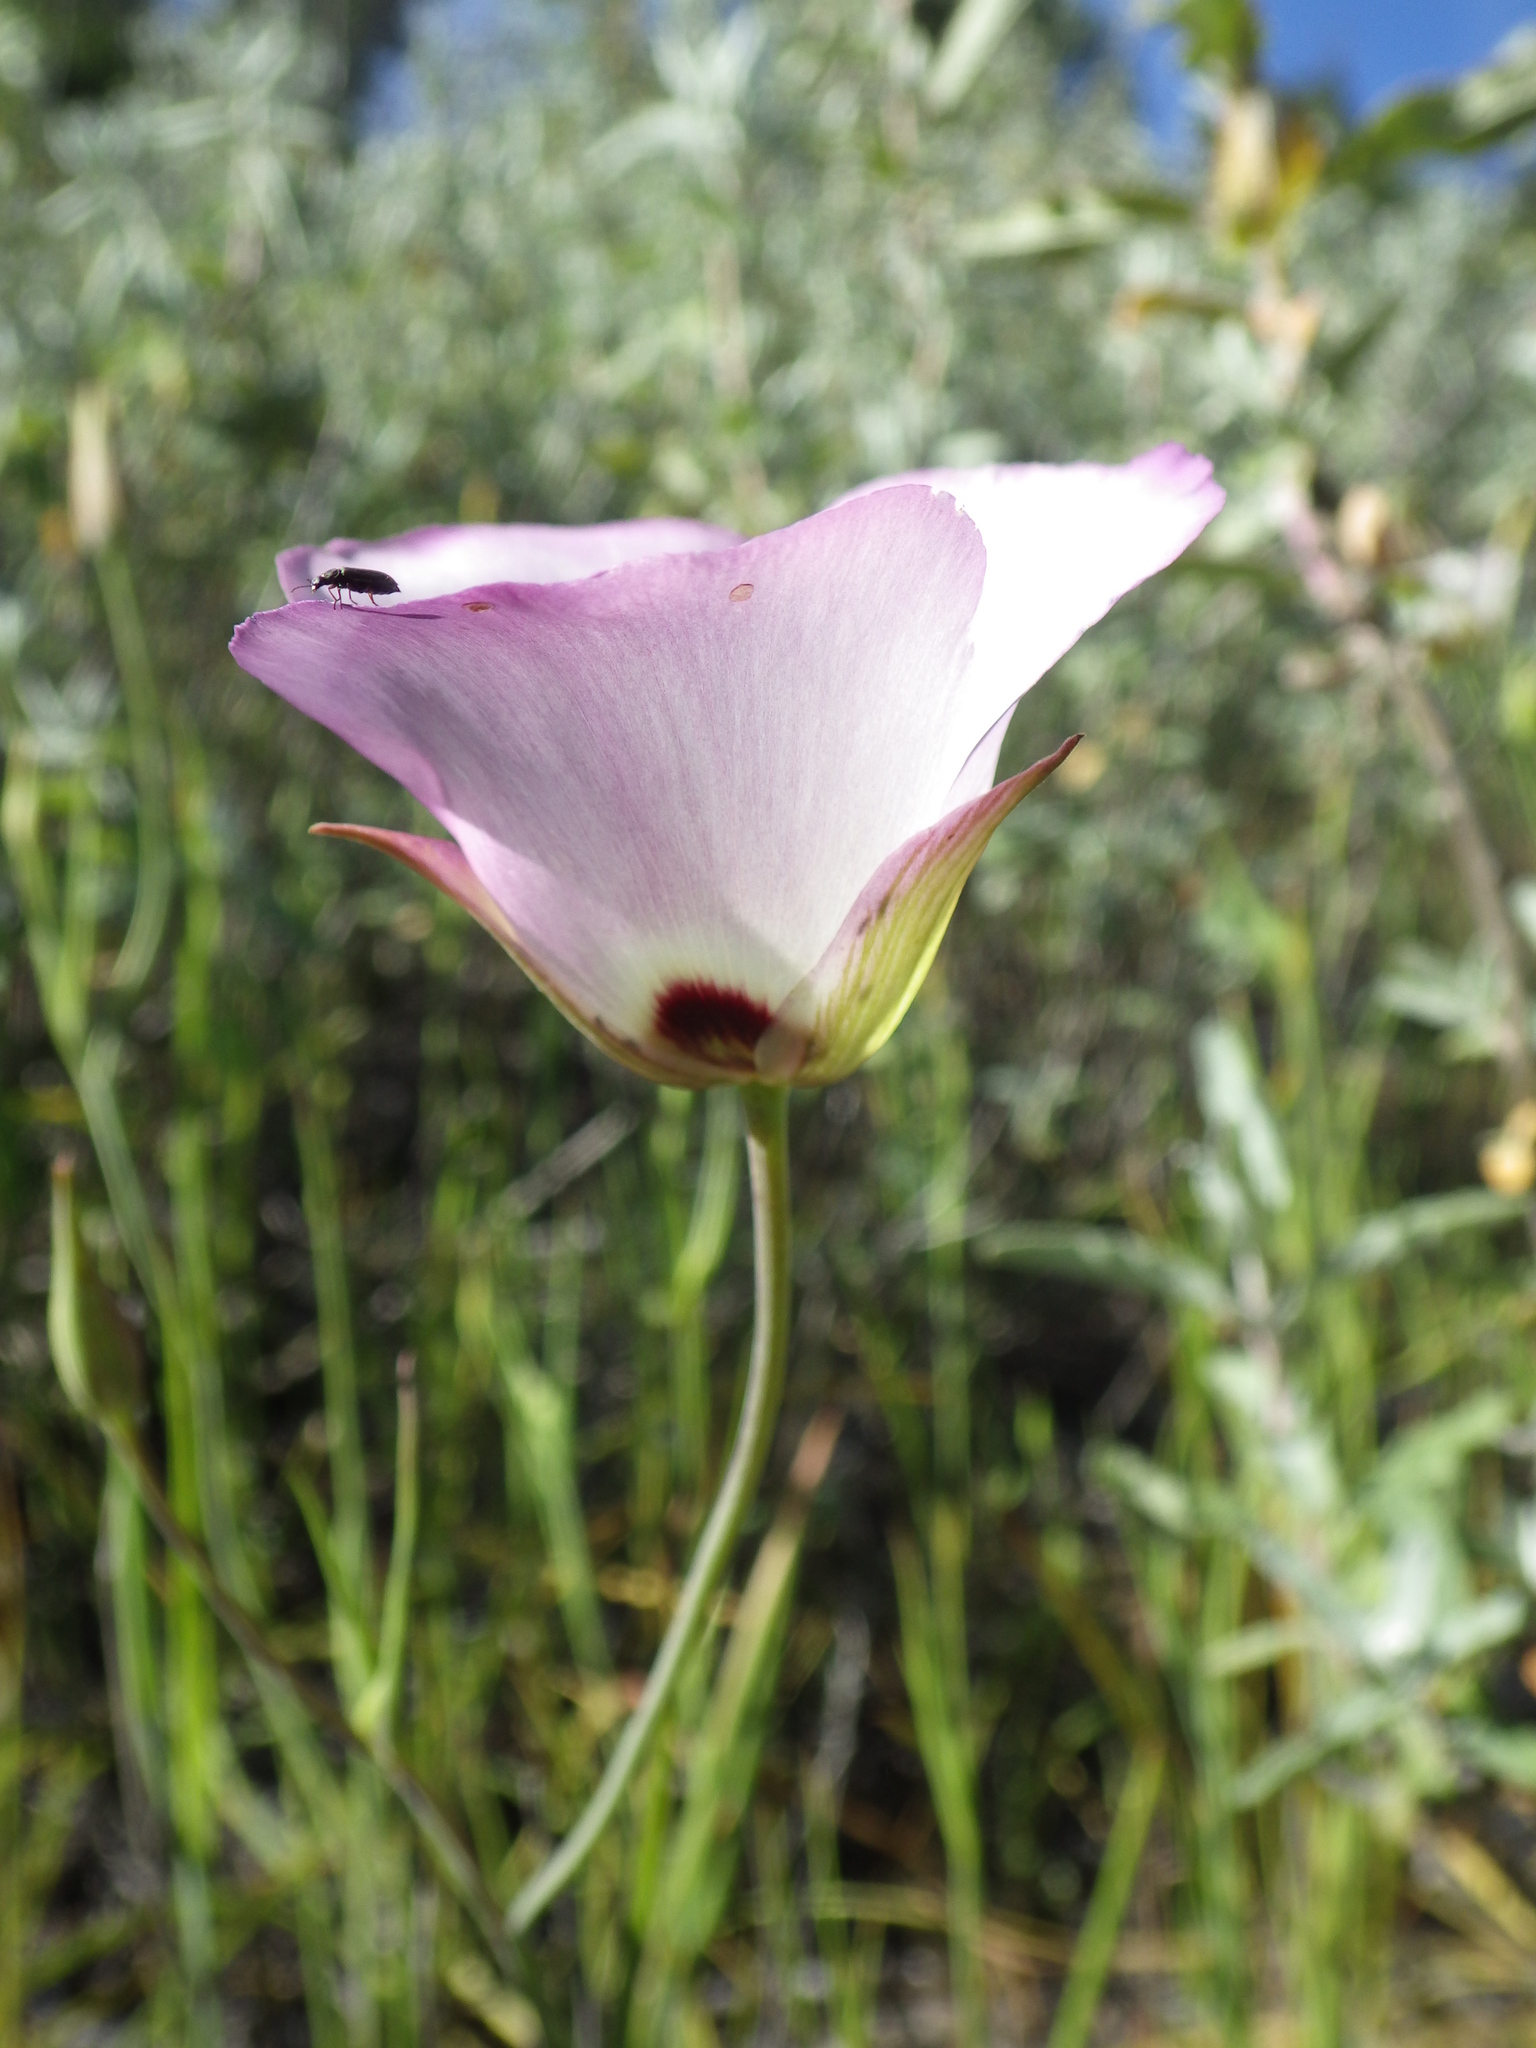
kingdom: Plantae
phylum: Tracheophyta
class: Liliopsida
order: Liliales
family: Liliaceae
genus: Calochortus
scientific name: Calochortus catalinae
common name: Catalina mariposa-lily
